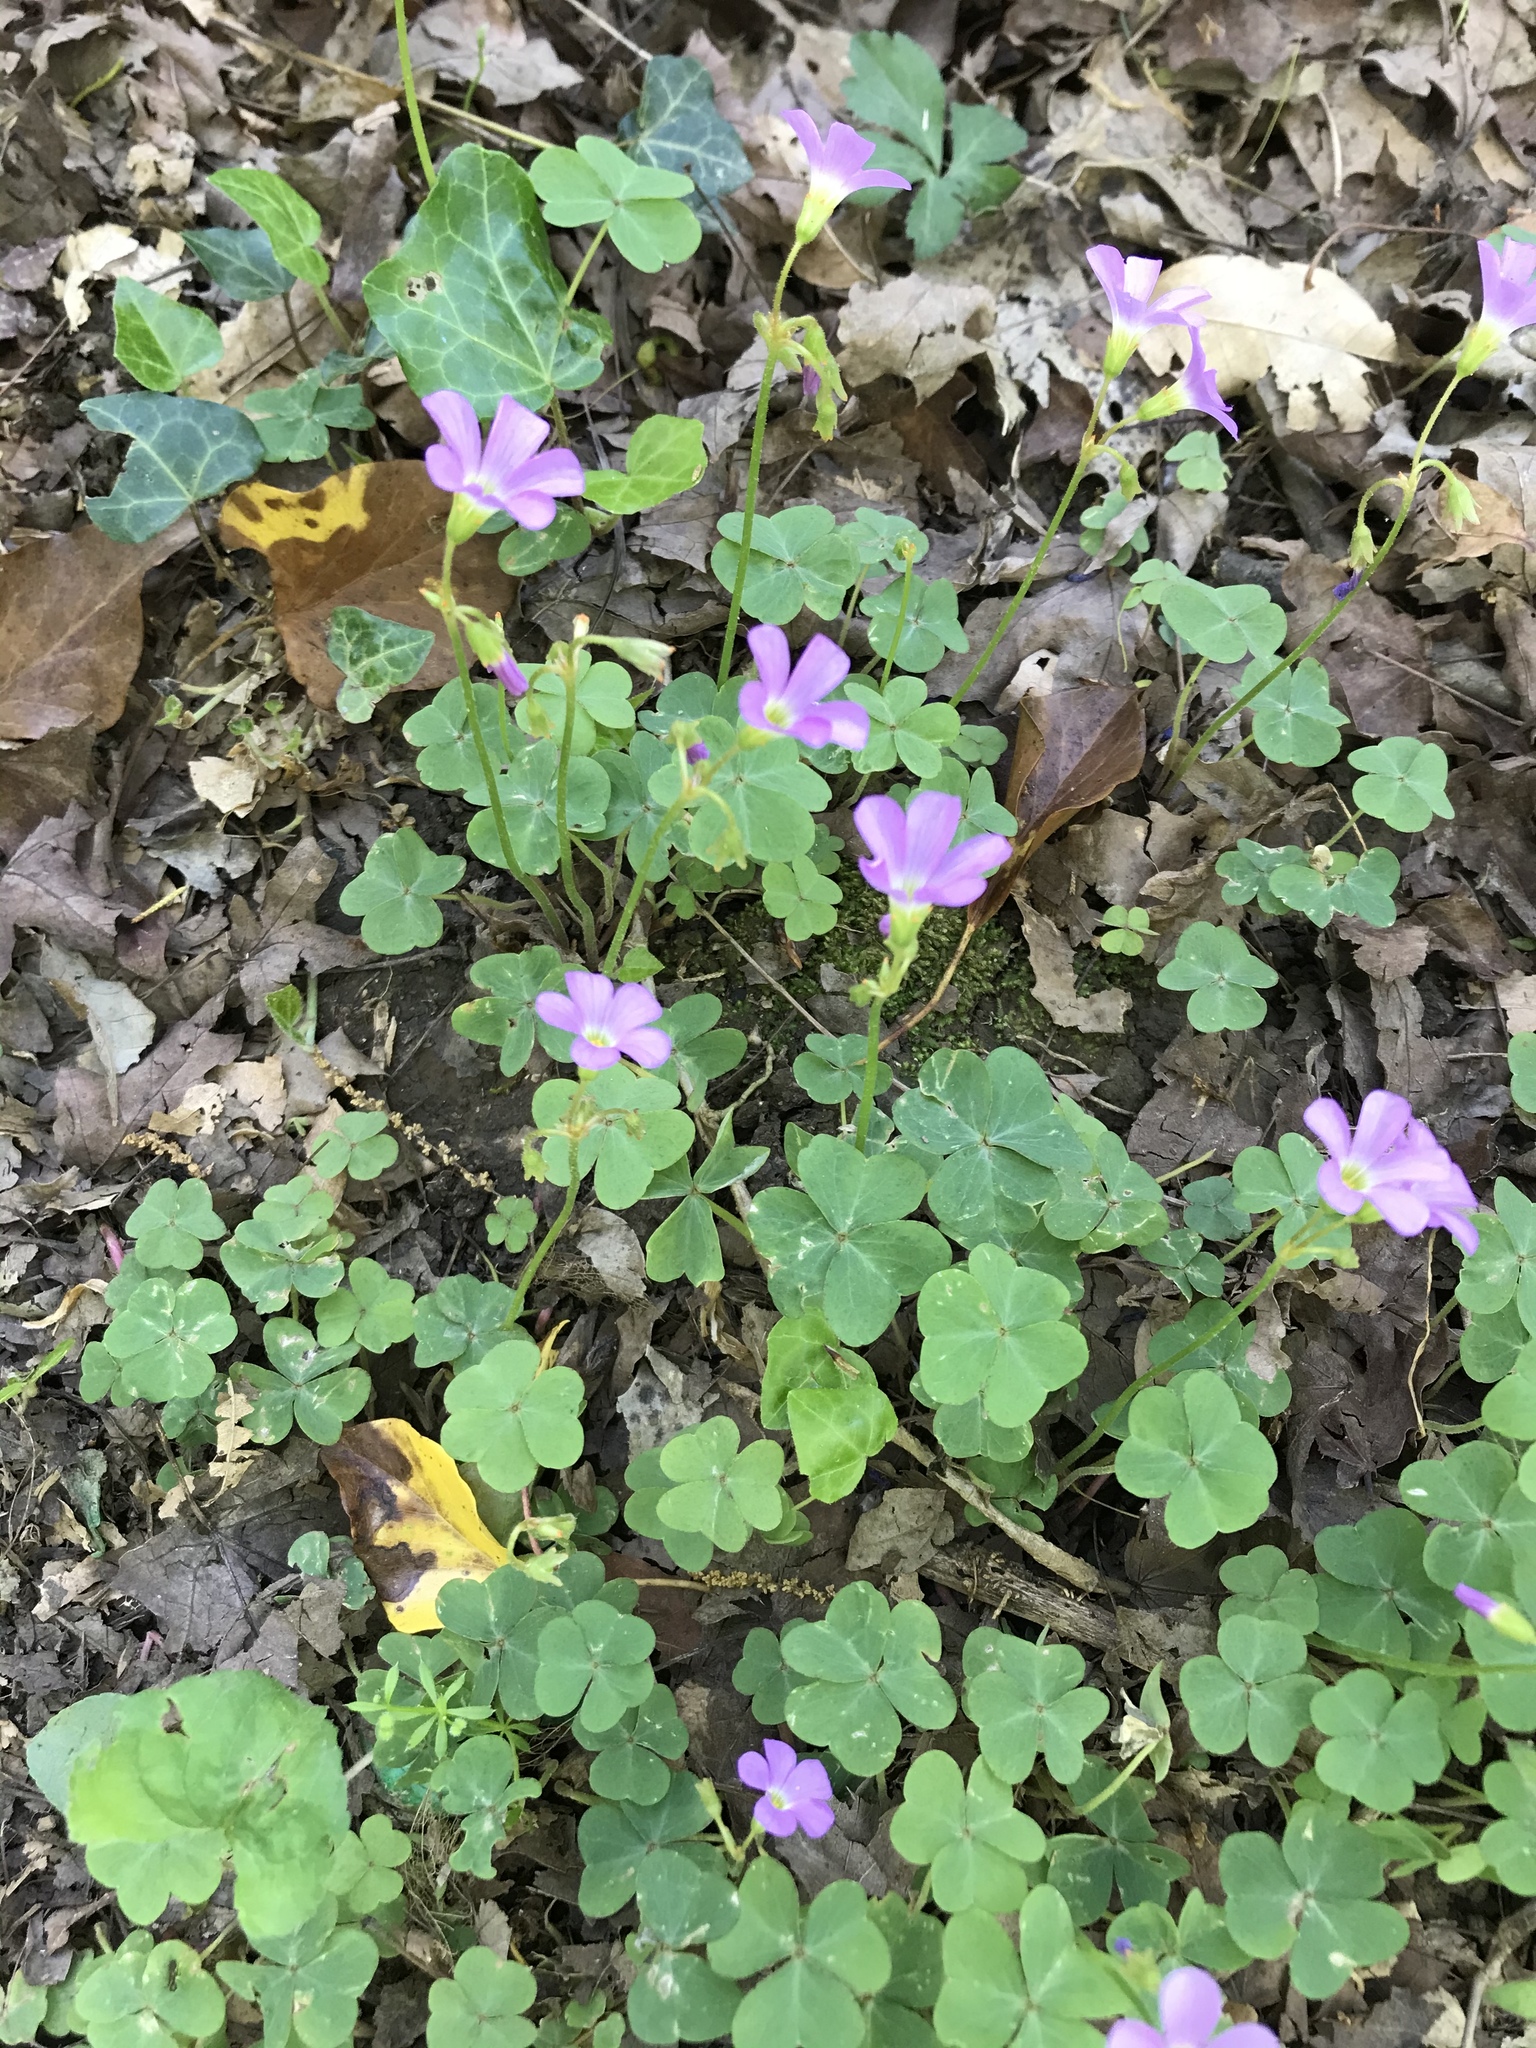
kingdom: Plantae
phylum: Tracheophyta
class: Magnoliopsida
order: Oxalidales
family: Oxalidaceae
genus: Oxalis
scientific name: Oxalis violacea
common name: Violet wood-sorrel
